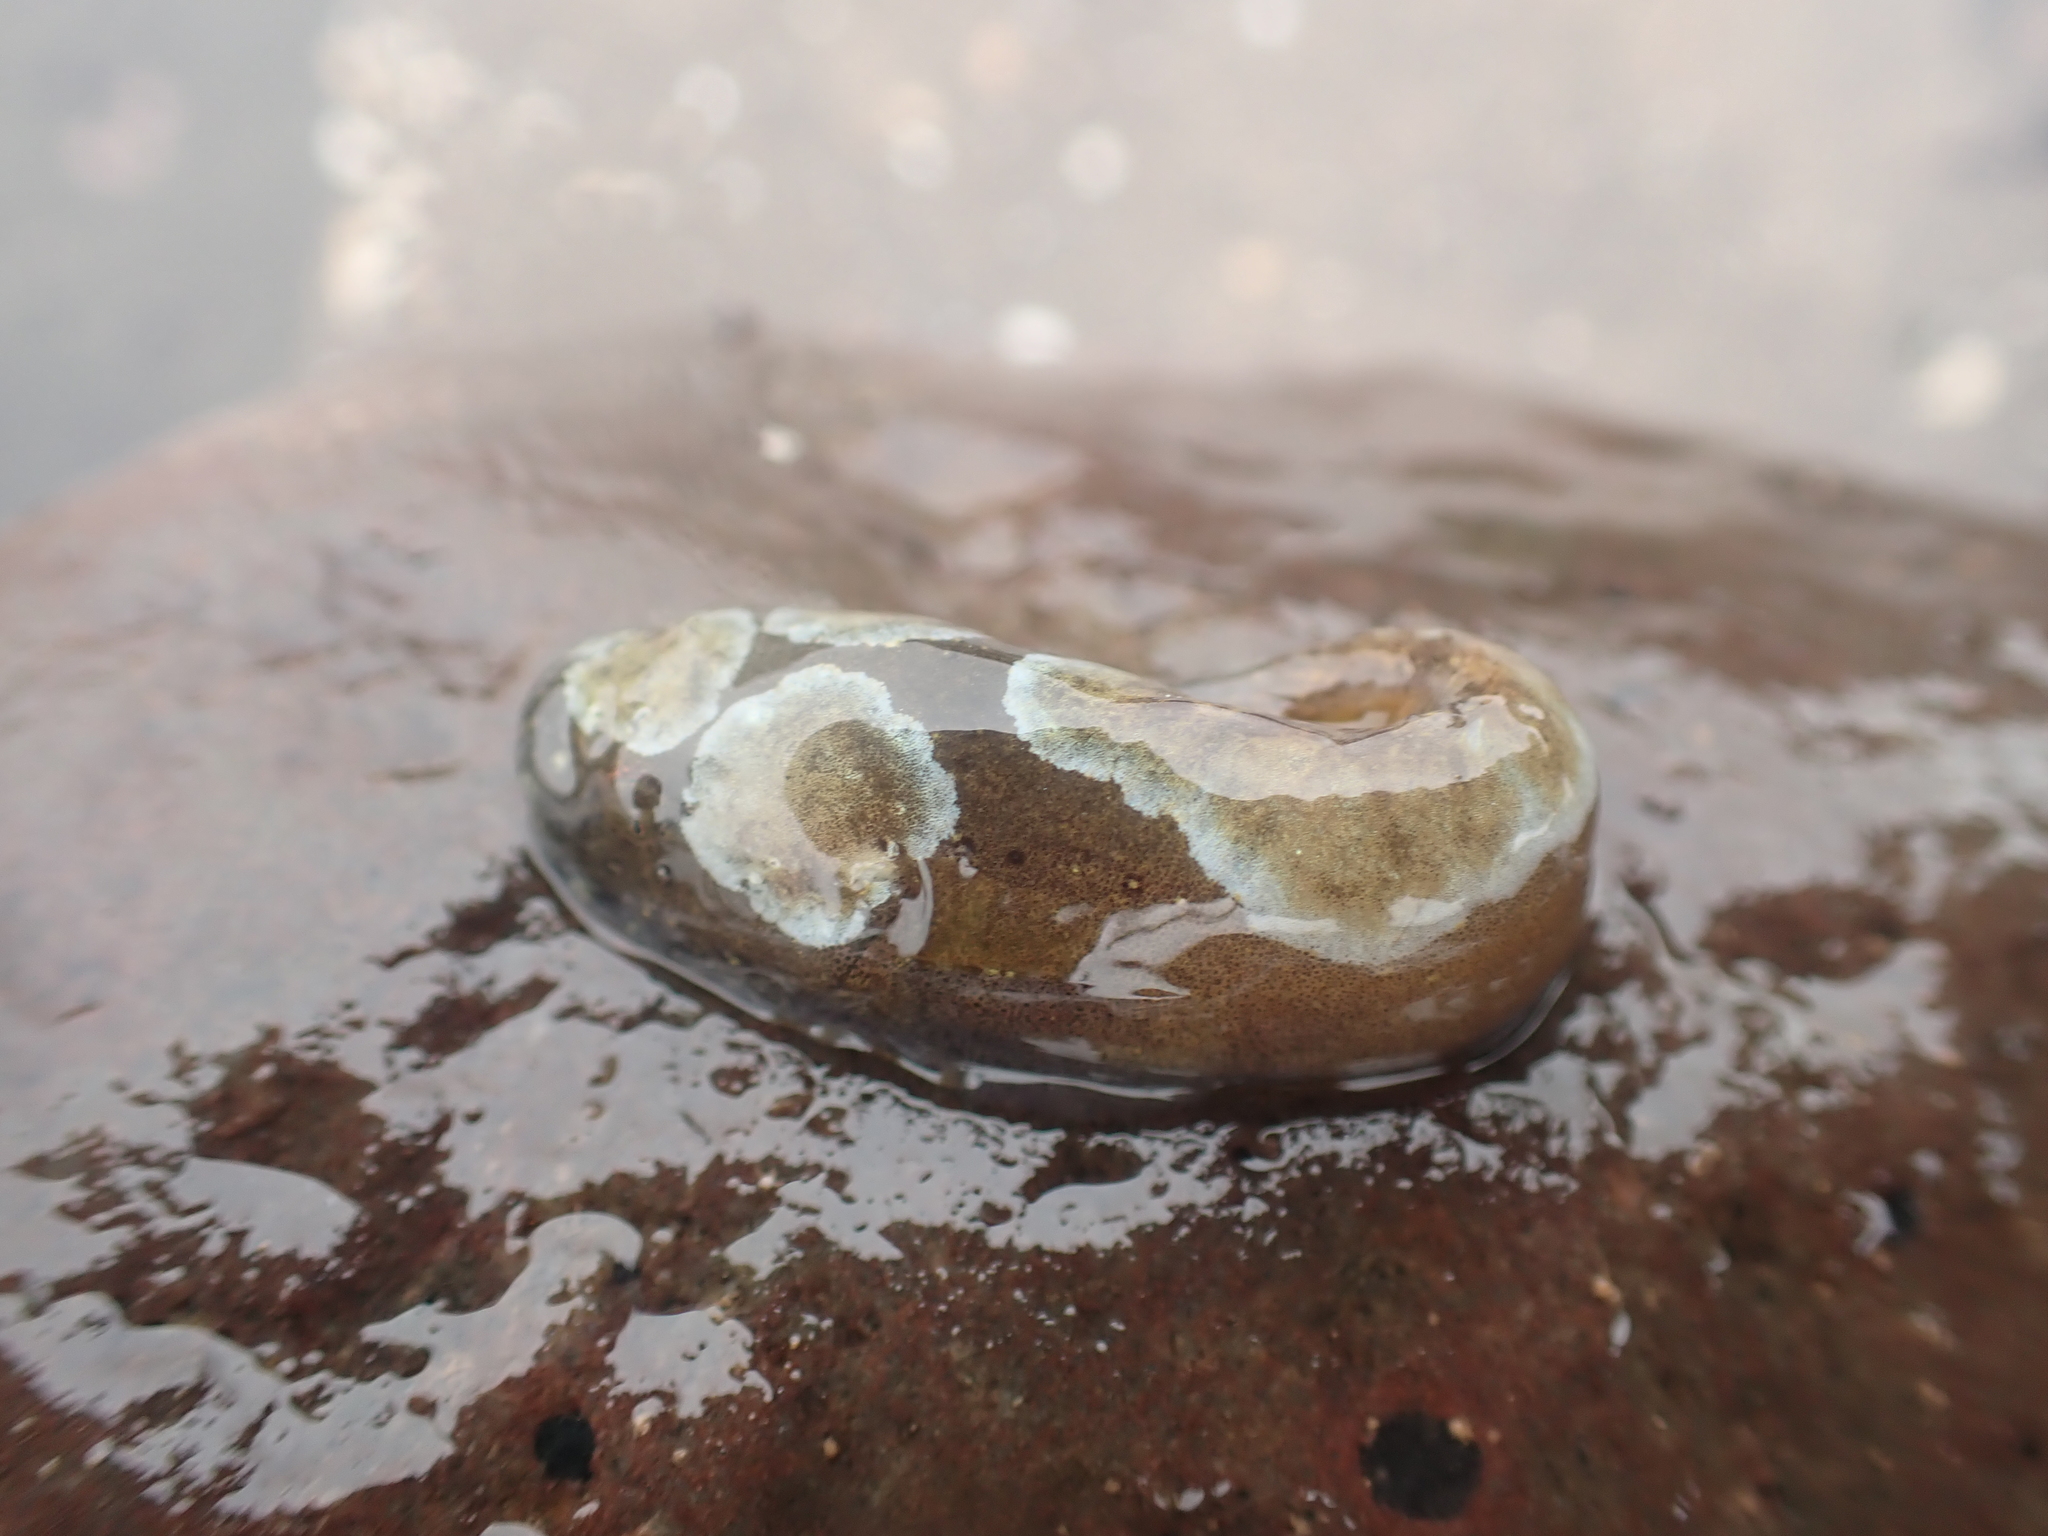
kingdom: Animalia
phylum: Chordata
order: Scorpaeniformes
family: Liparidae
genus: Liparis
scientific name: Liparis atlanticus
